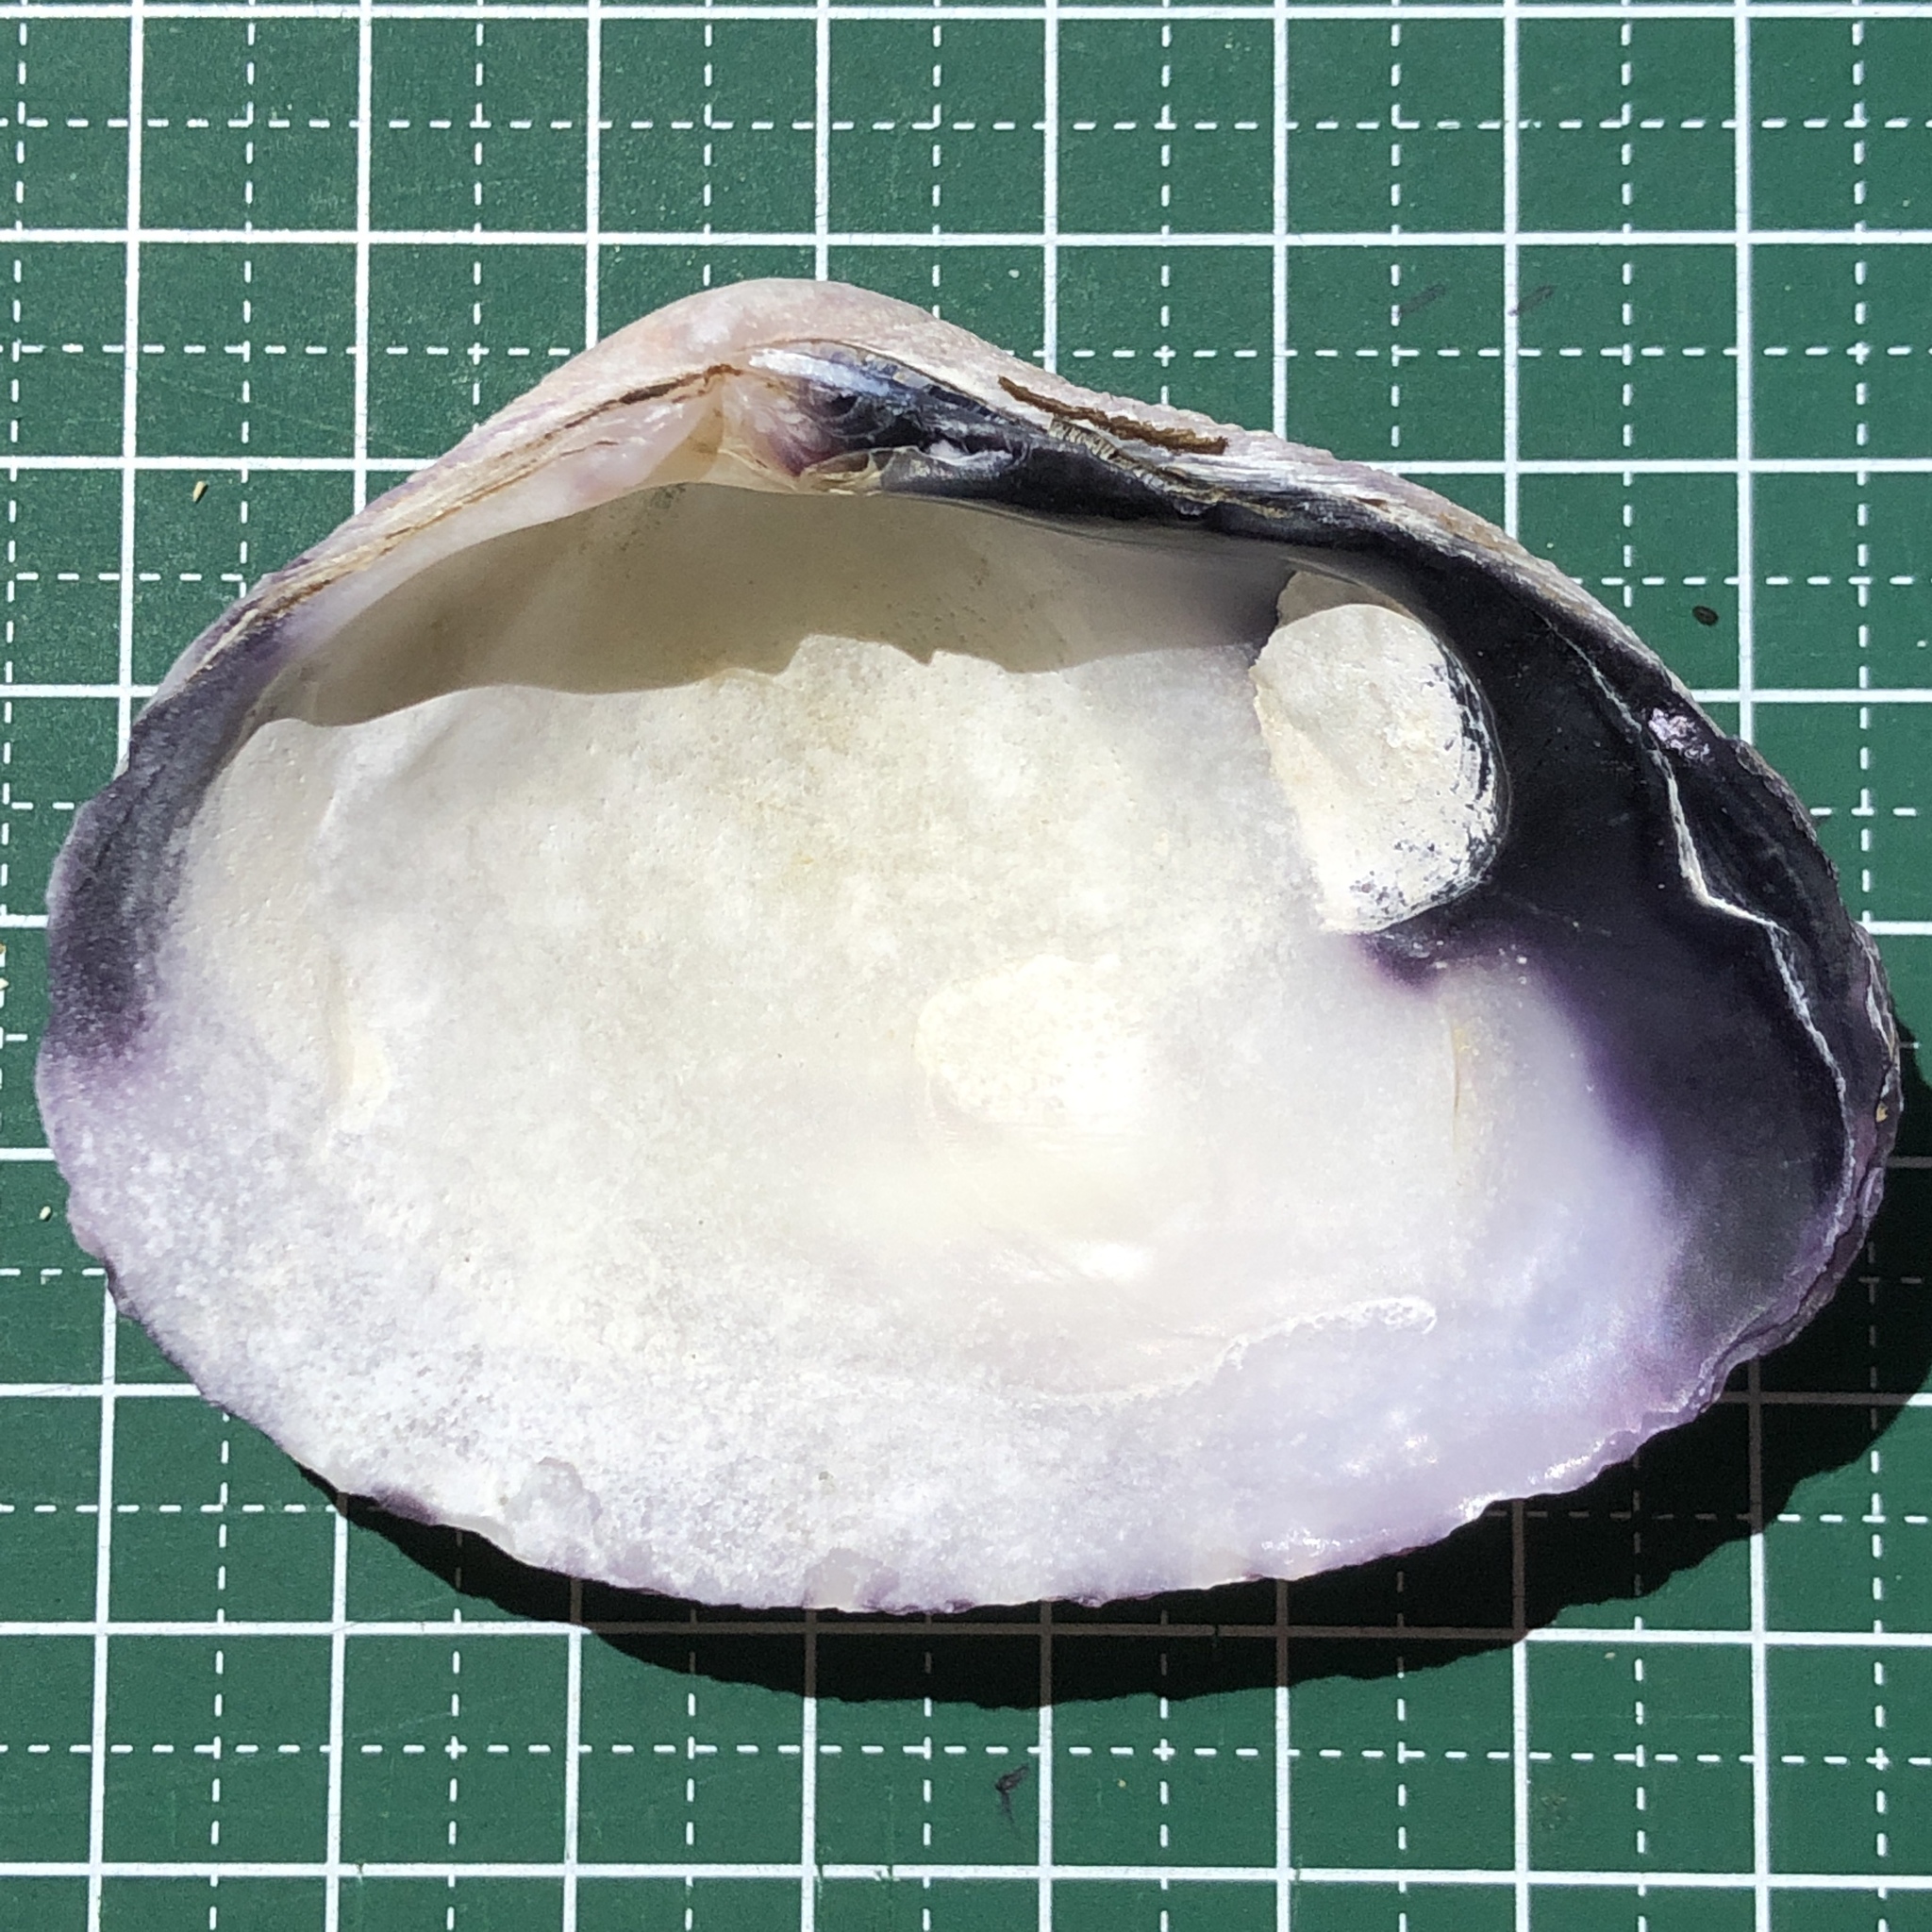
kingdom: Animalia
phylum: Mollusca
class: Bivalvia
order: Cardiida
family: Psammobiidae
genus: Asaphis
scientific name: Asaphis violascens
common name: Pacific asaphis
